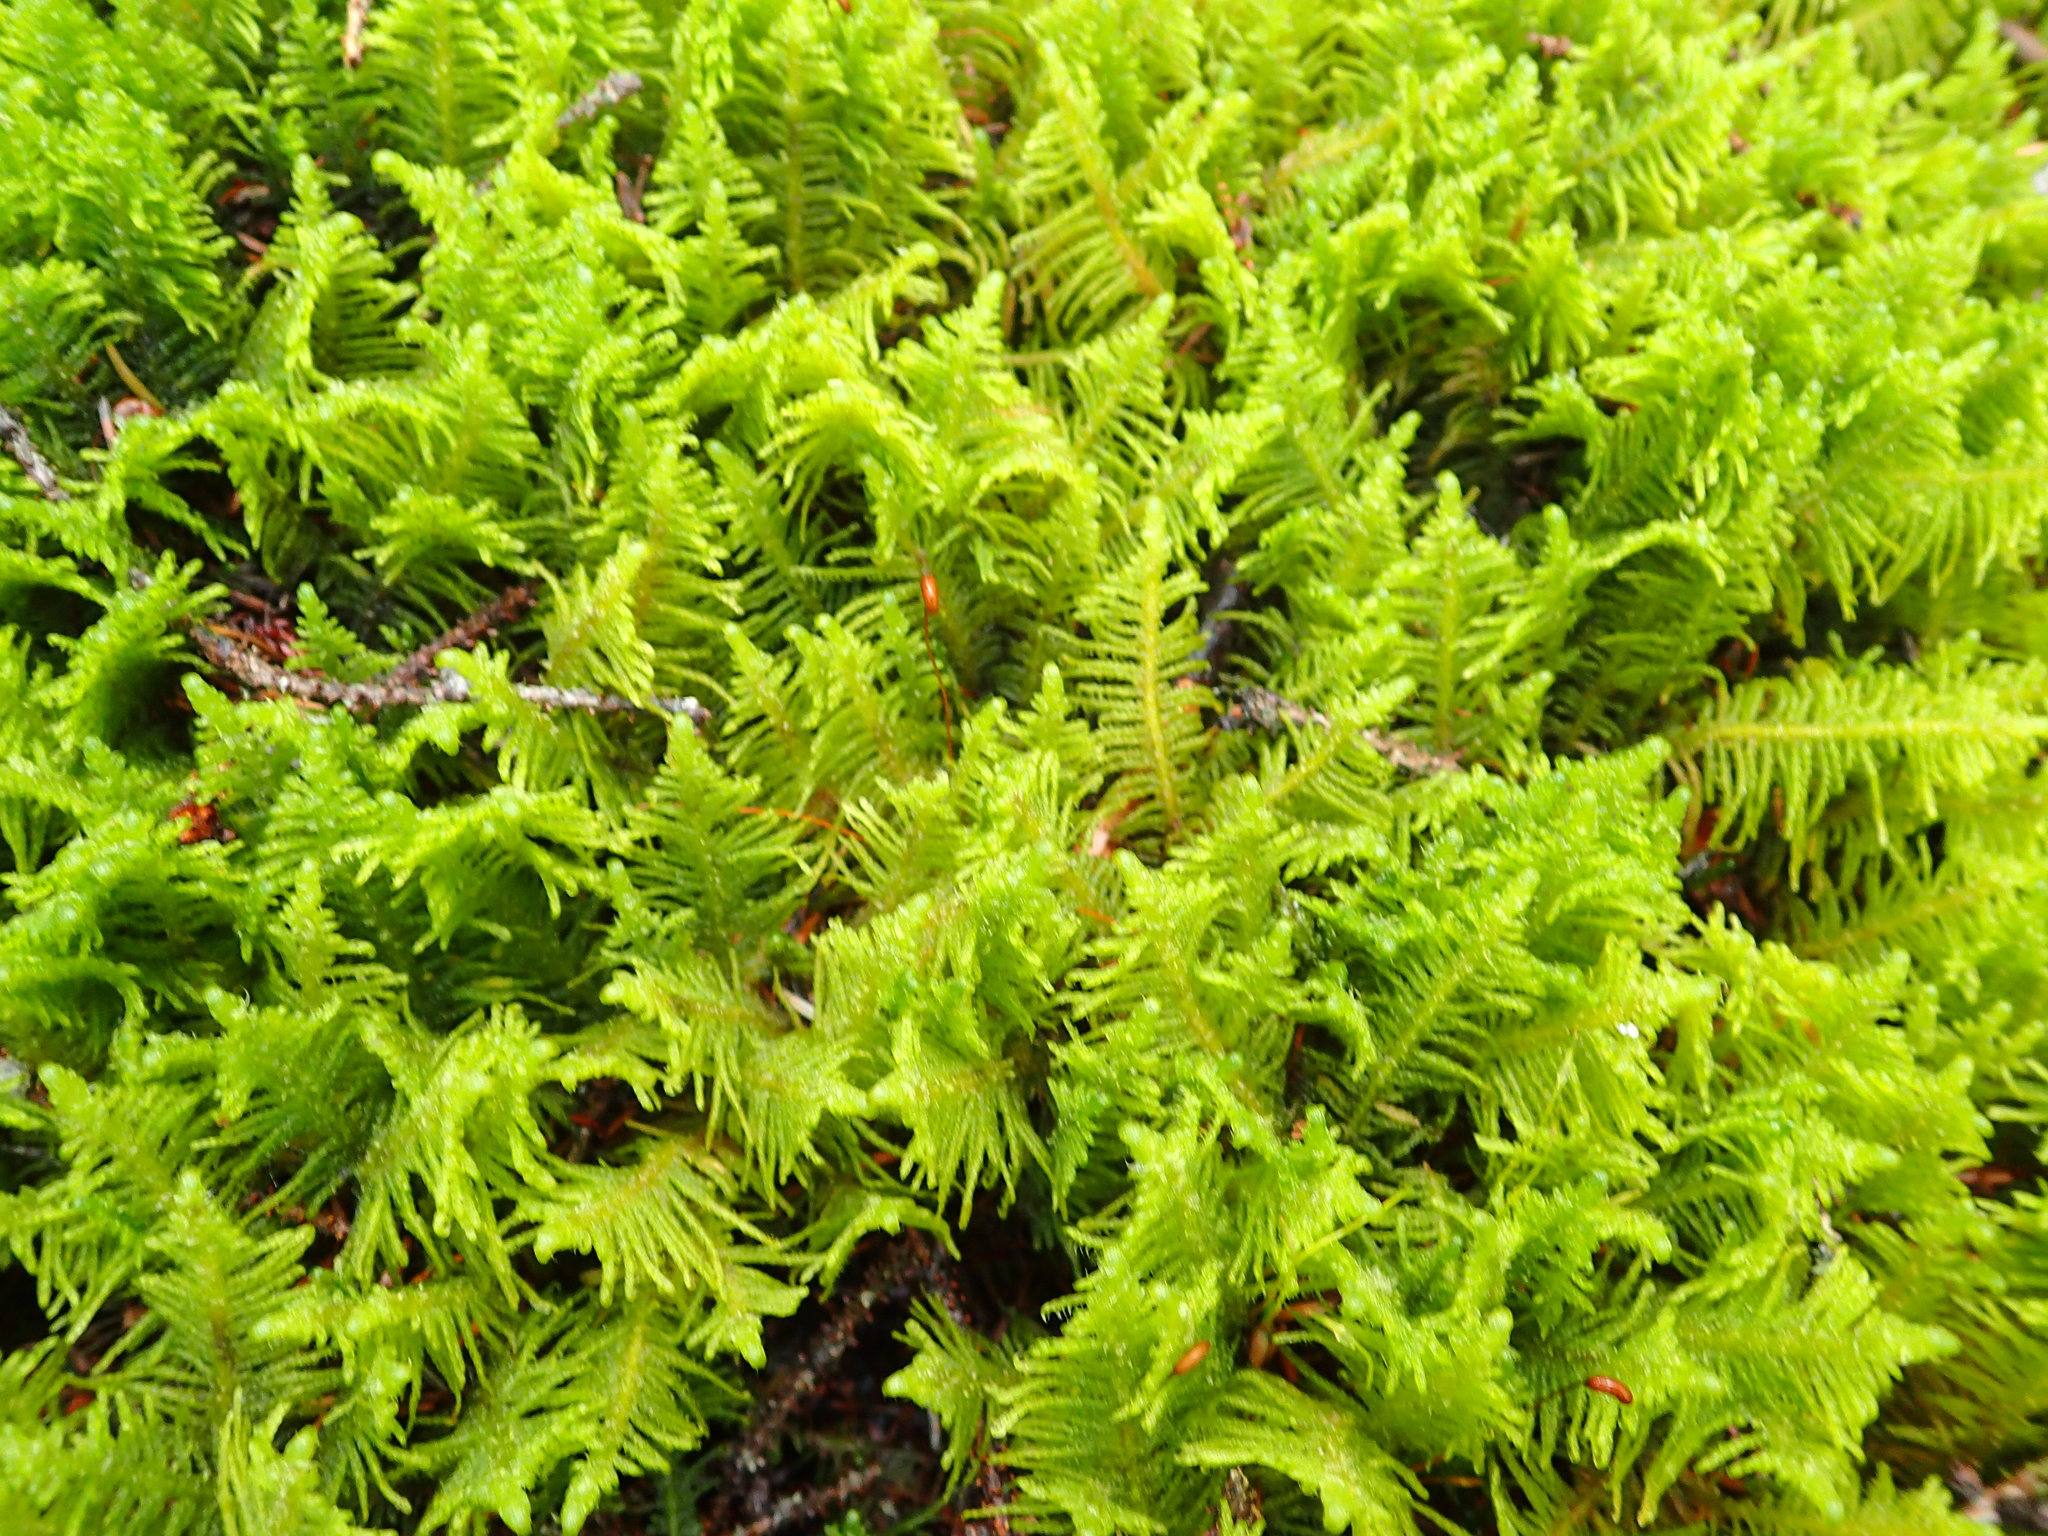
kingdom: Plantae
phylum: Bryophyta
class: Bryopsida
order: Hypnales
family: Pylaisiaceae
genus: Ptilium
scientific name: Ptilium crista-castrensis
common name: Knight's plume moss
